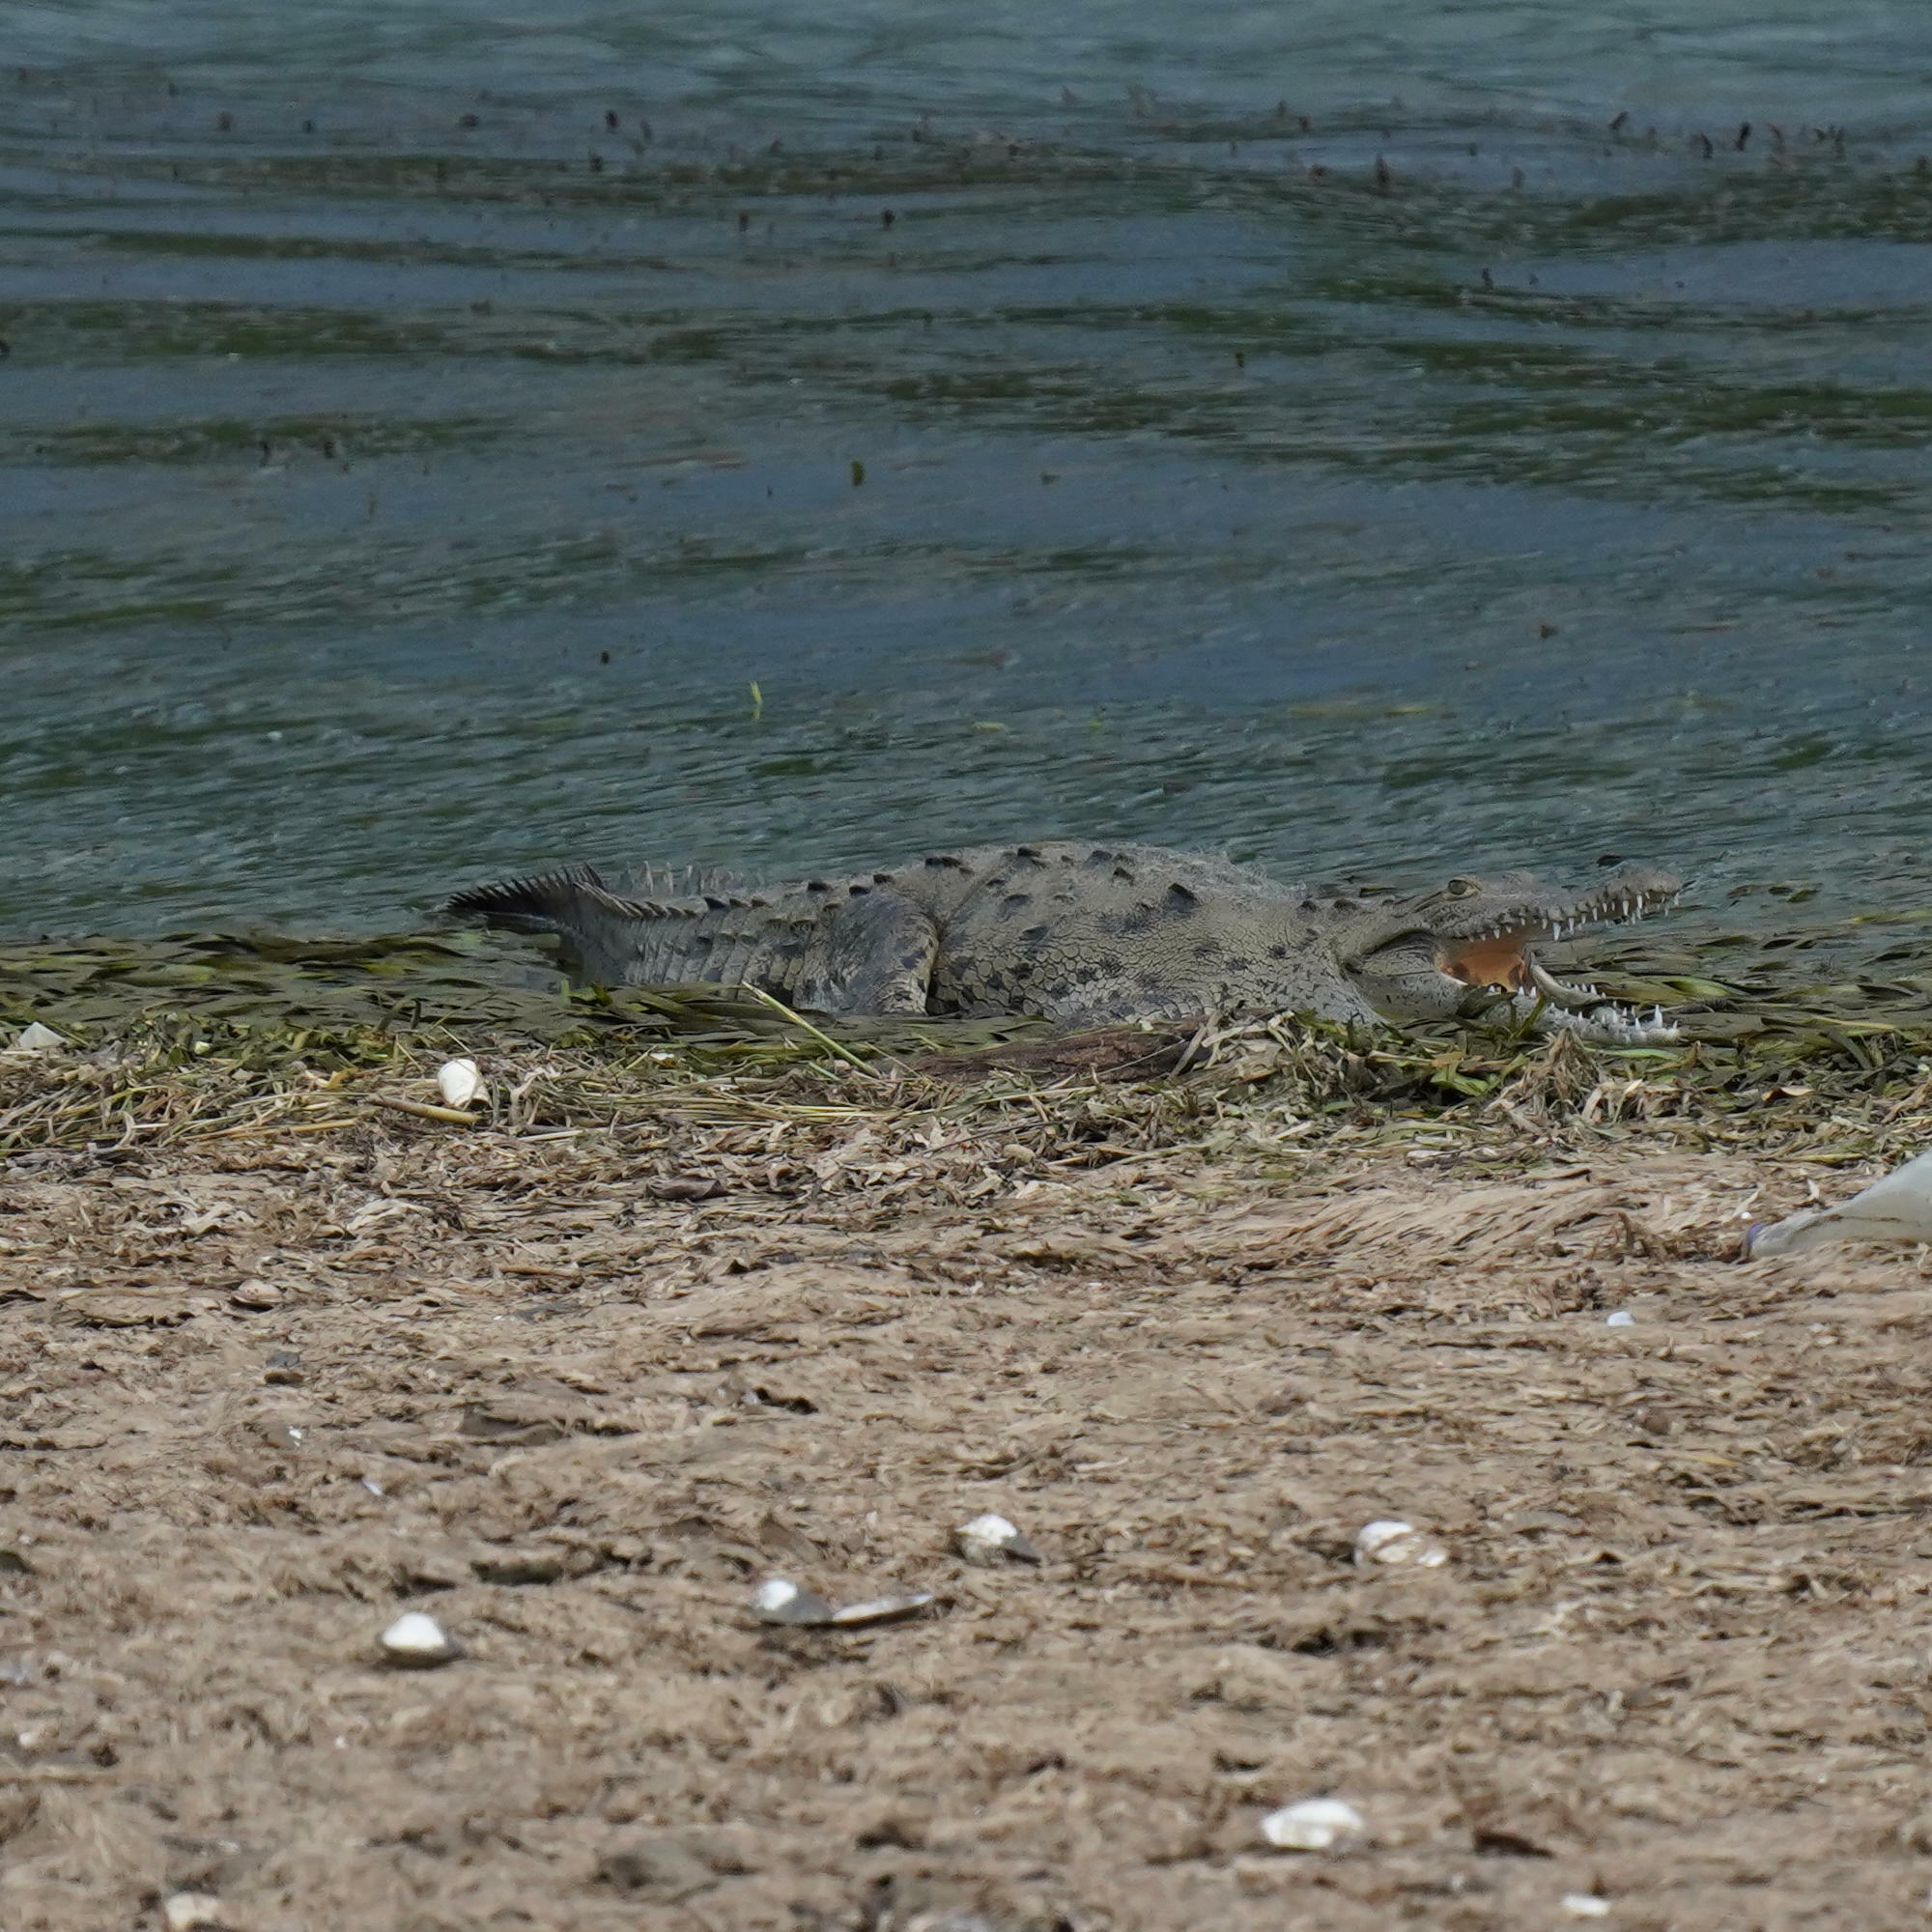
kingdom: Animalia
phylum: Chordata
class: Crocodylia
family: Crocodylidae
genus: Crocodylus
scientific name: Crocodylus acutus
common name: American crocodile
